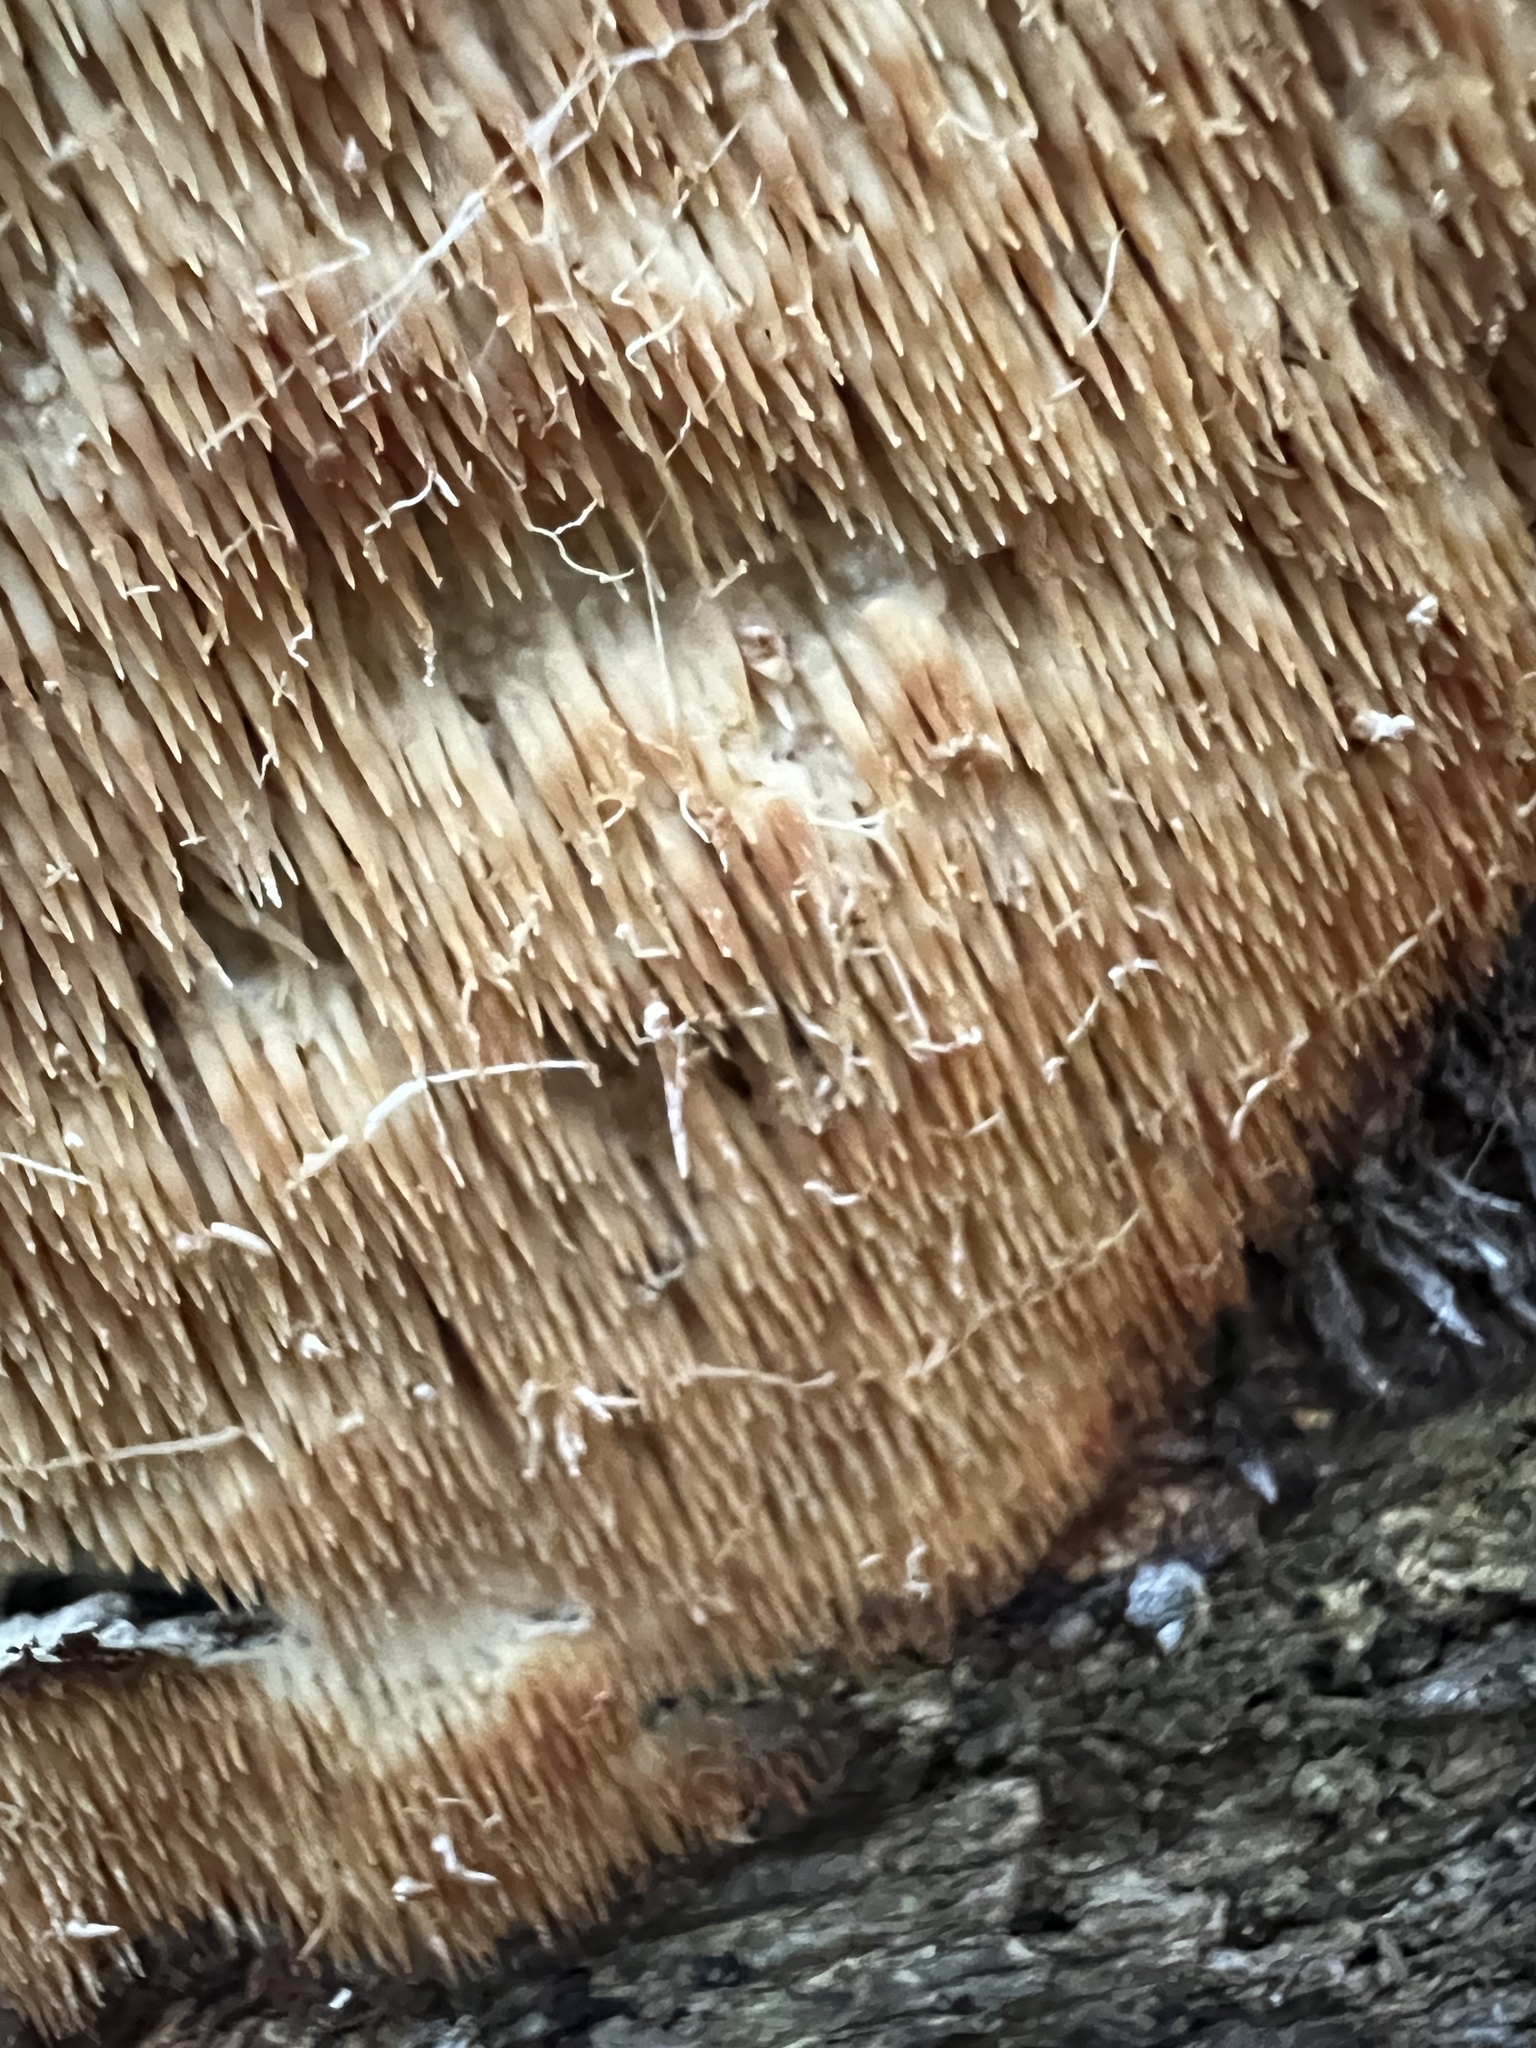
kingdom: Fungi
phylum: Basidiomycota
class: Agaricomycetes
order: Polyporales
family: Steccherinaceae
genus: Steccherinum
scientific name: Steccherinum ochraceum
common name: Ochre spreading tooth
